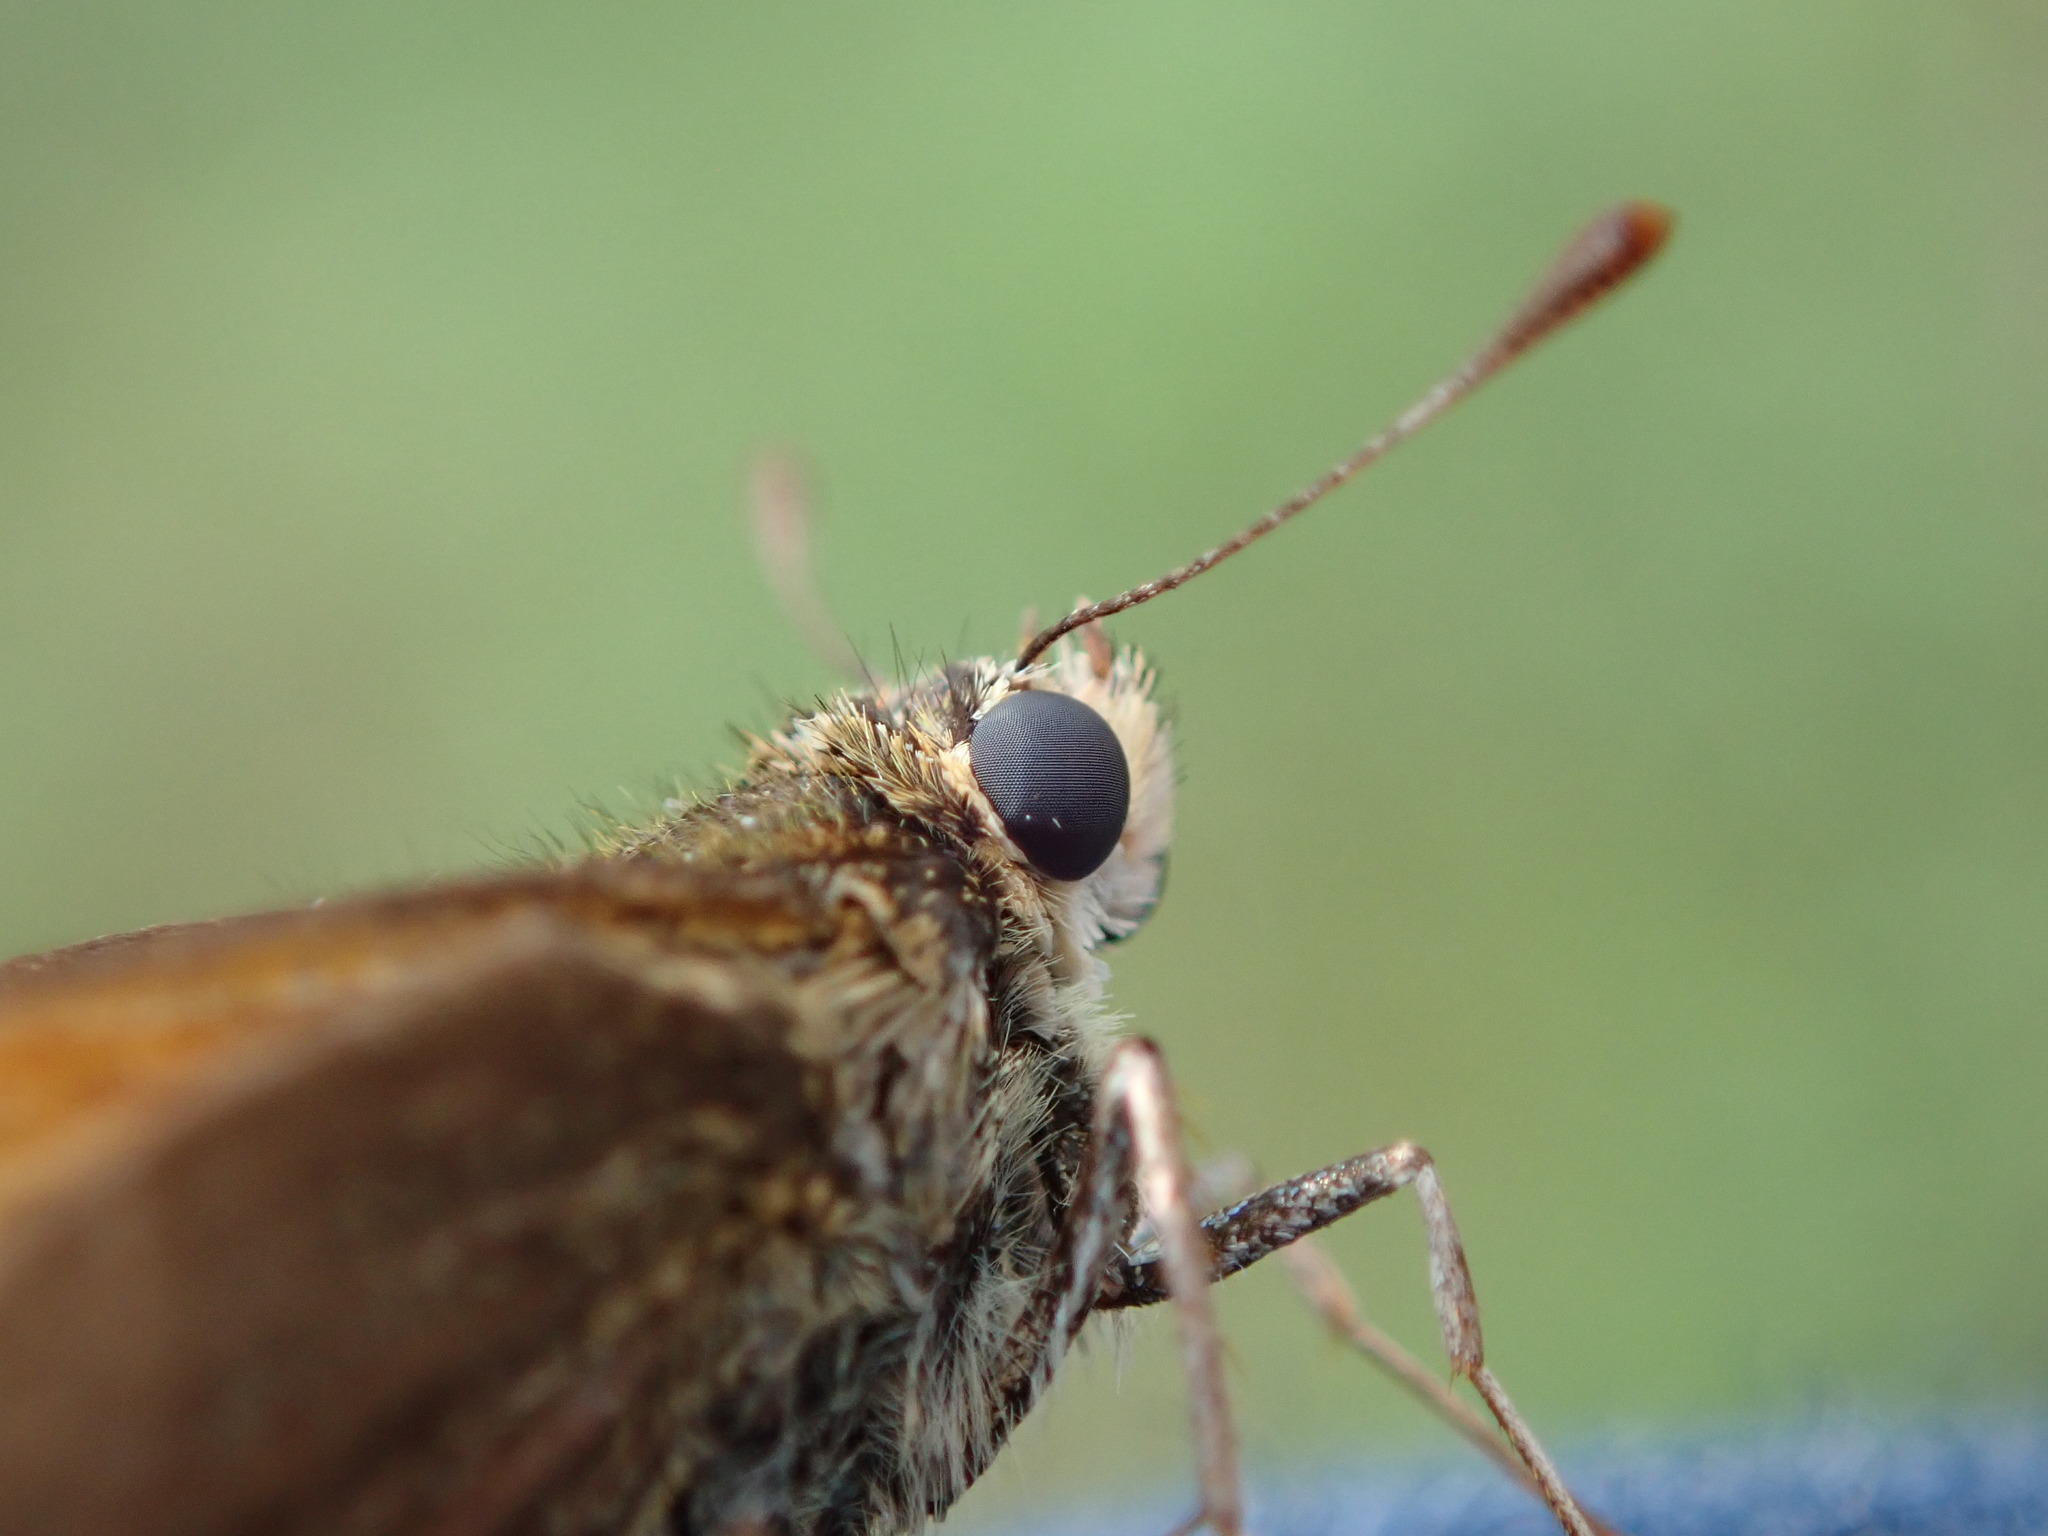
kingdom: Animalia
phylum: Arthropoda
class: Insecta
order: Lepidoptera
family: Hesperiidae
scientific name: Hesperiidae
